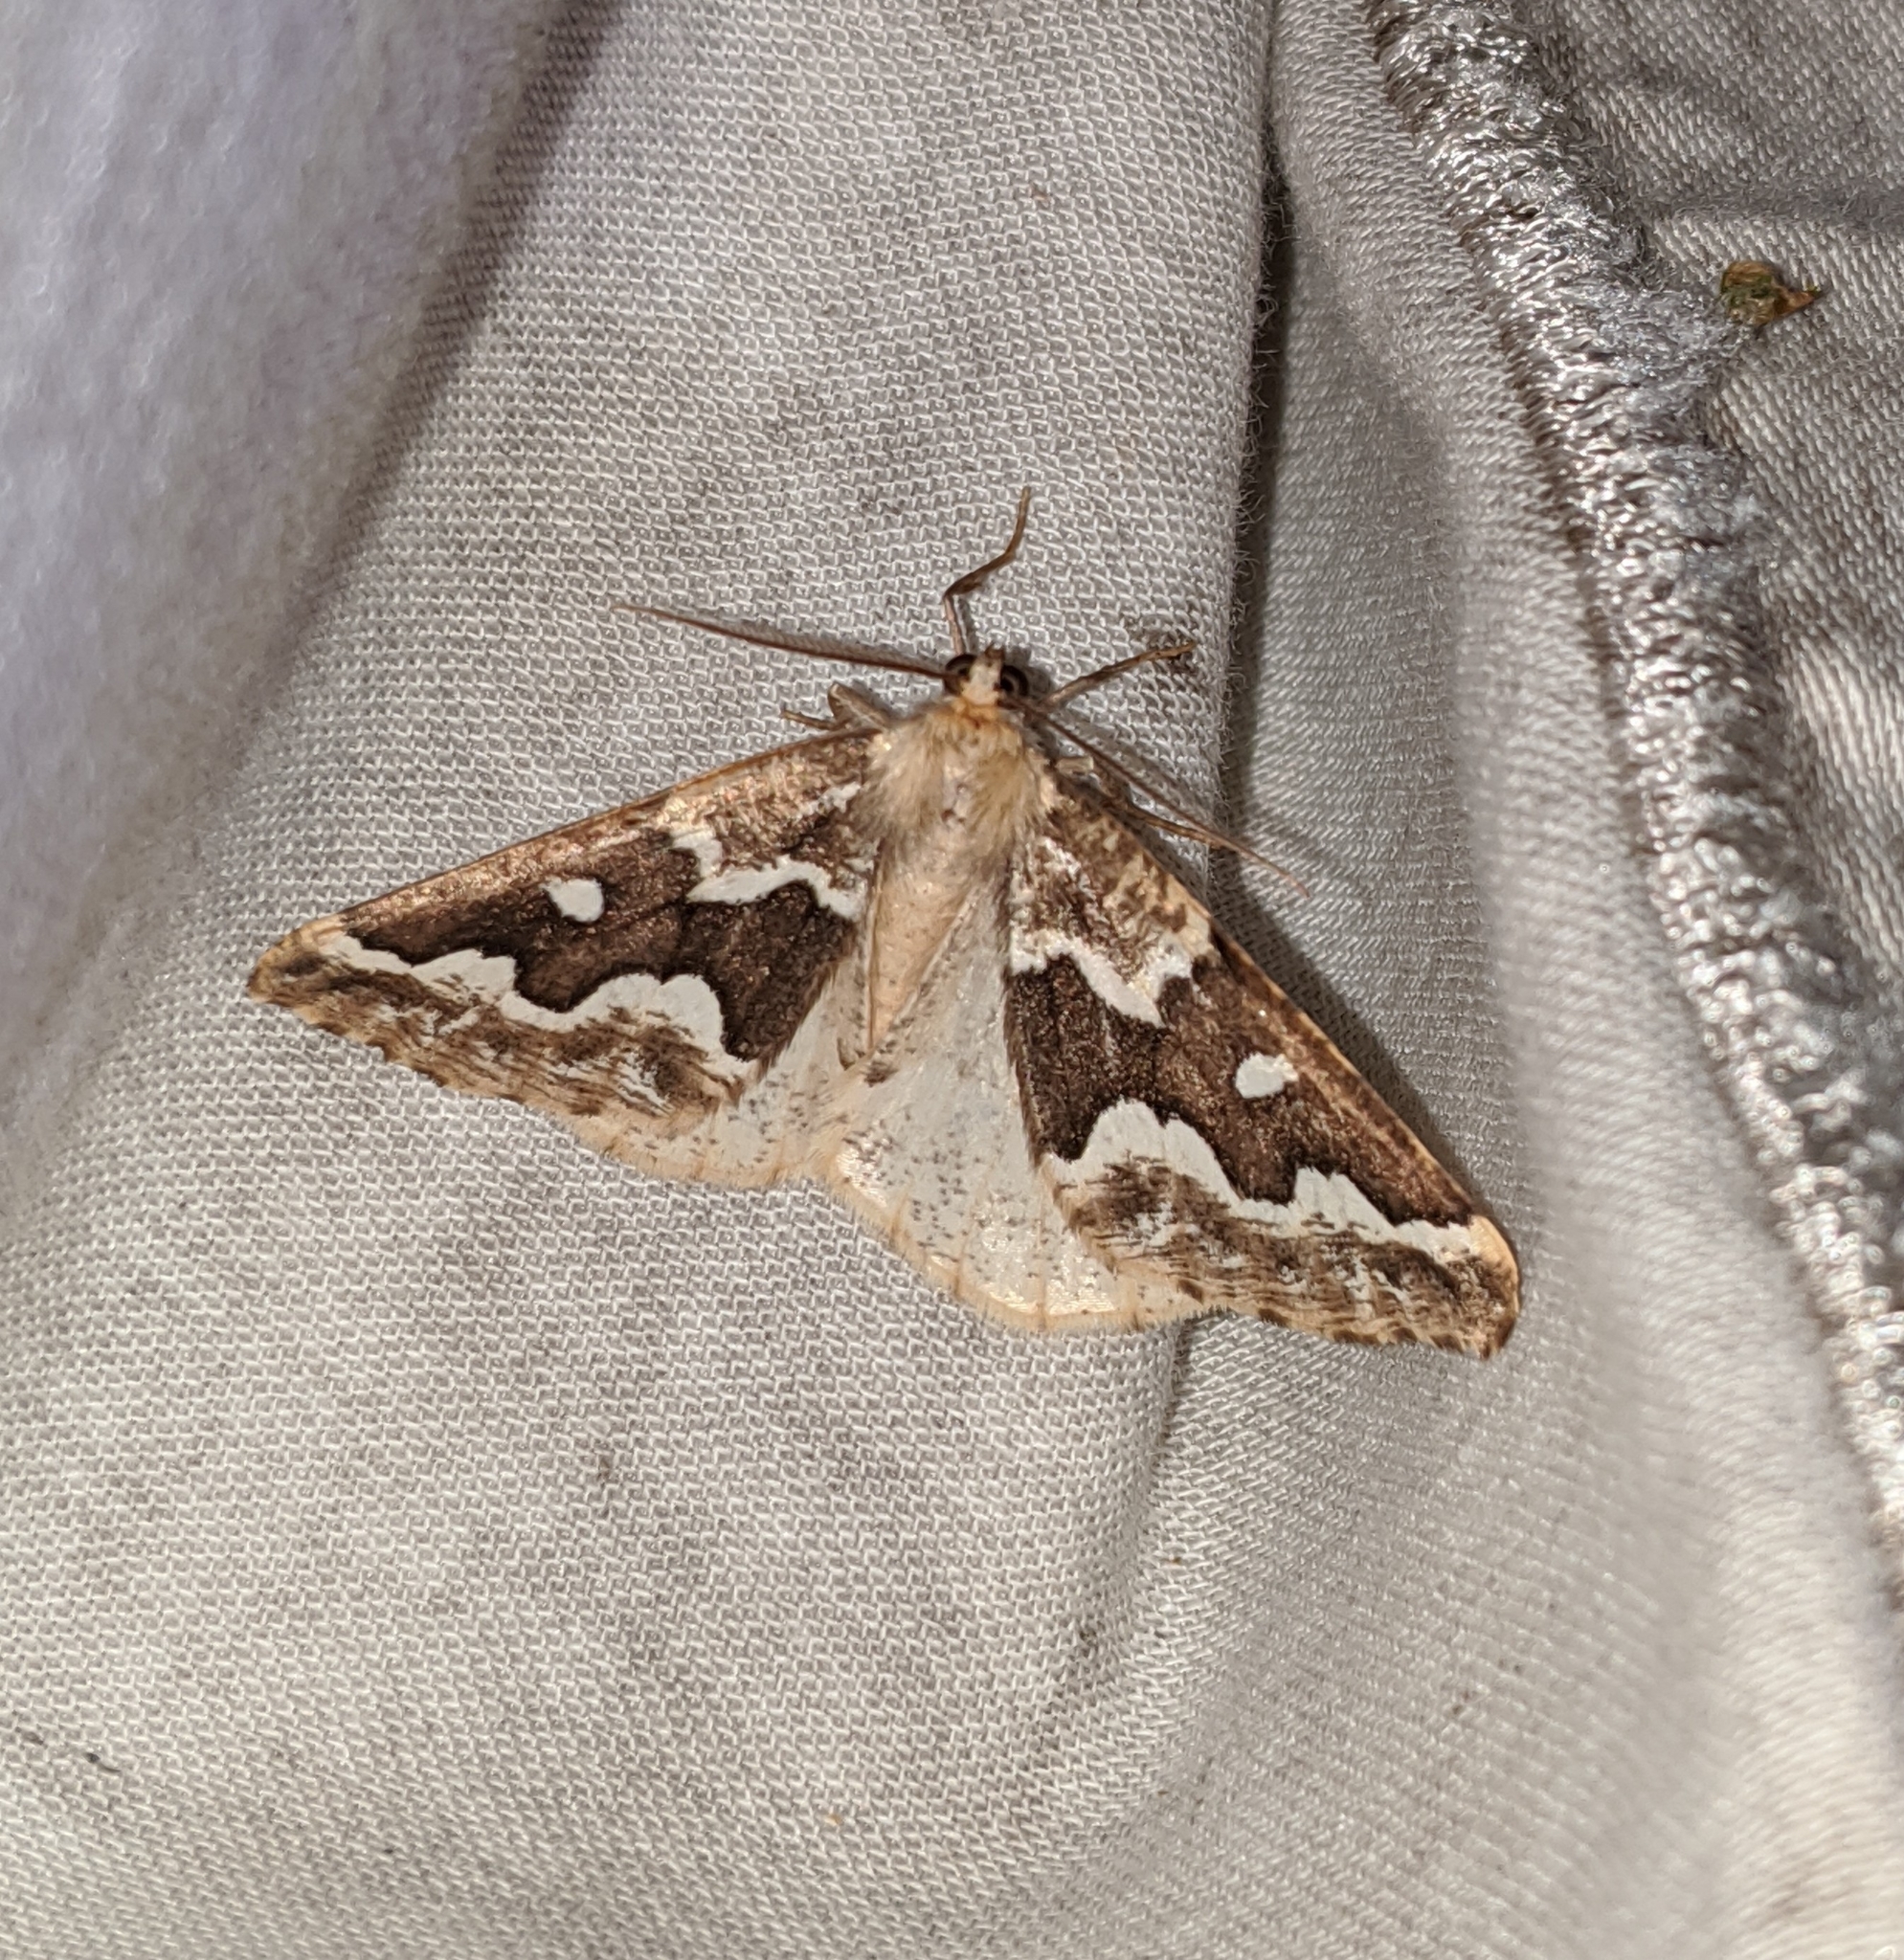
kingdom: Animalia
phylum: Arthropoda
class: Insecta
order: Lepidoptera
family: Geometridae
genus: Caripeta
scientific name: Caripeta divisata
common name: Gray spruce looper
